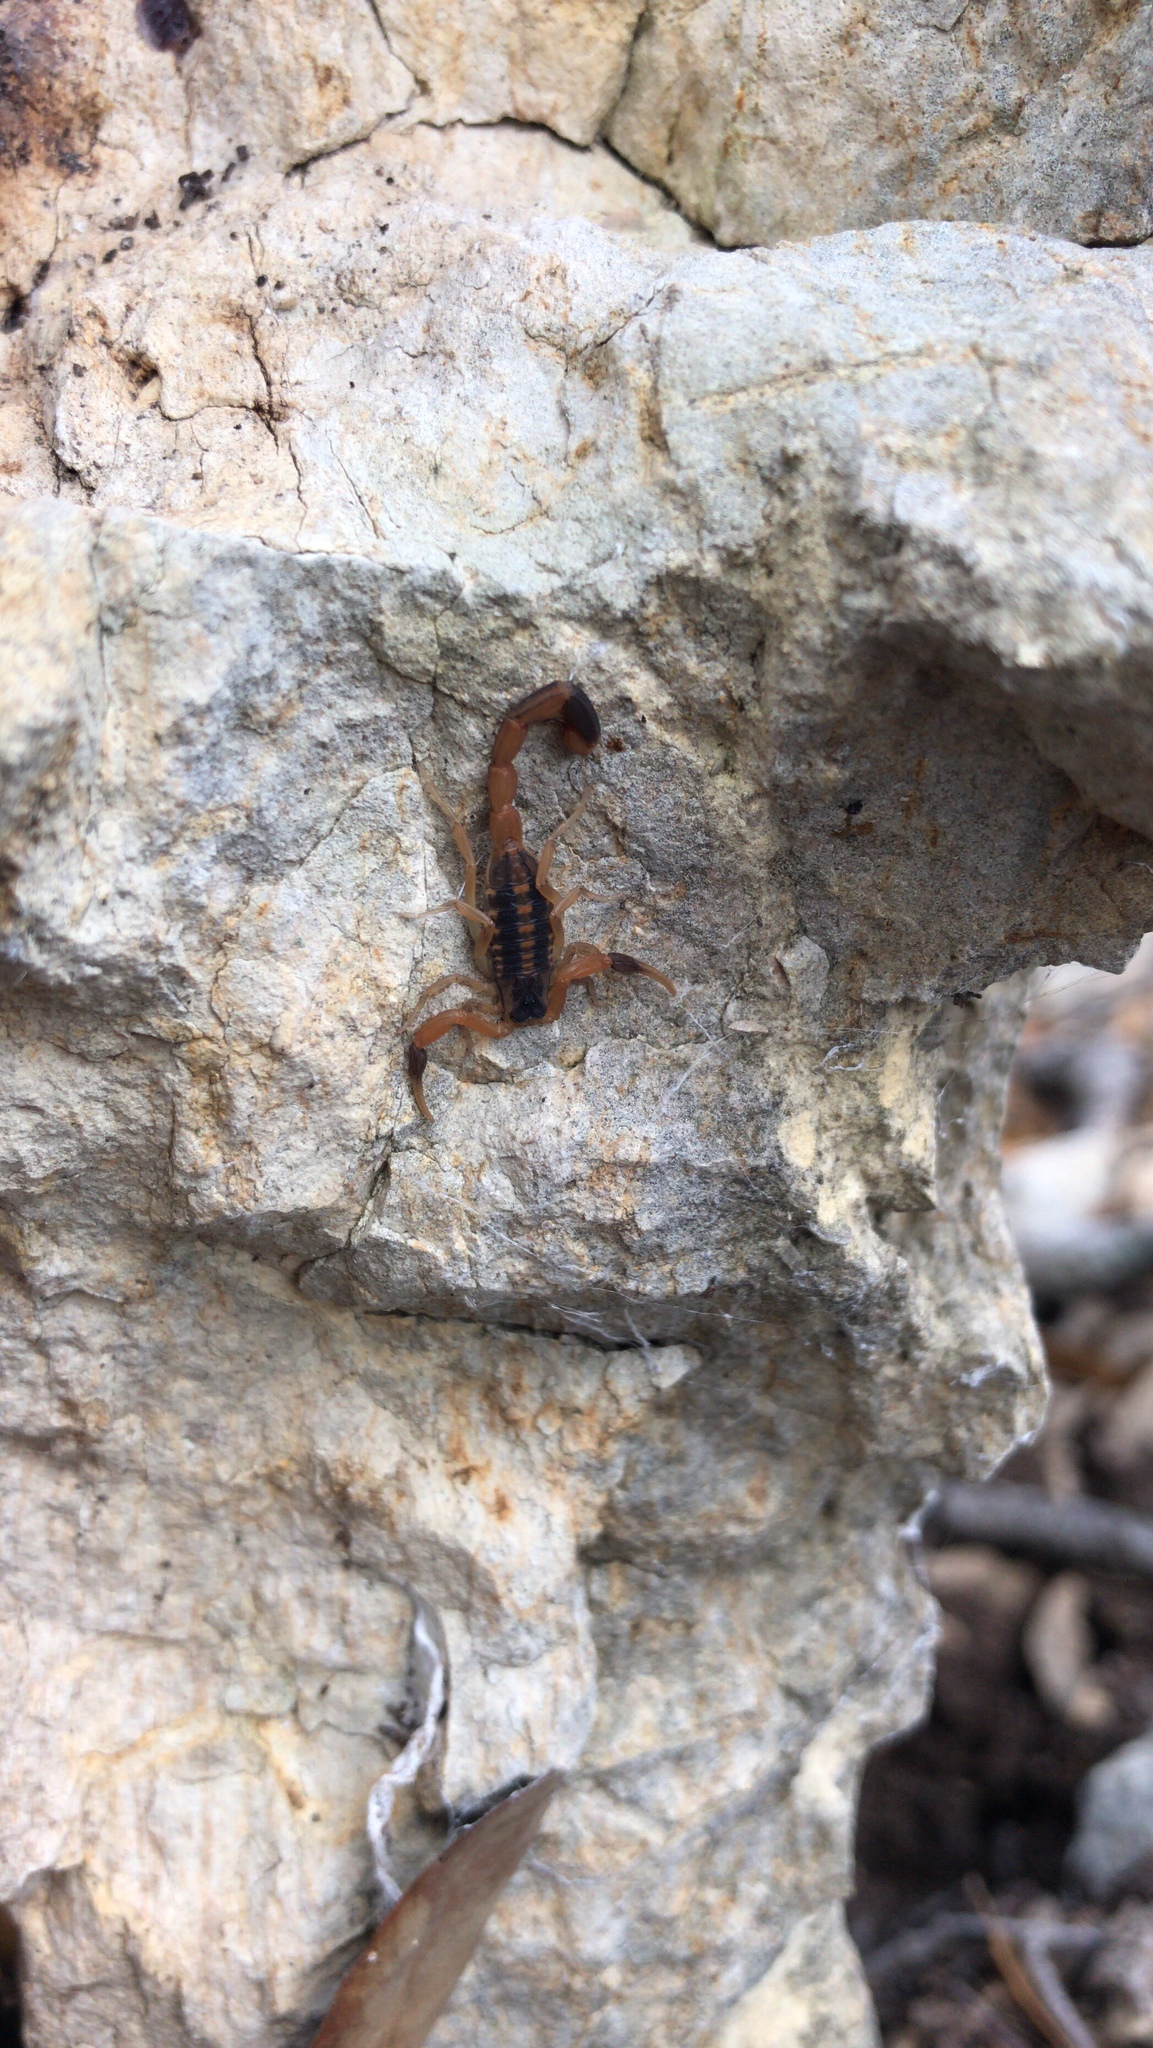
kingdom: Animalia
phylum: Arthropoda
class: Arachnida
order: Scorpiones
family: Buthidae
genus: Centruroides
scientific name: Centruroides vittatus
